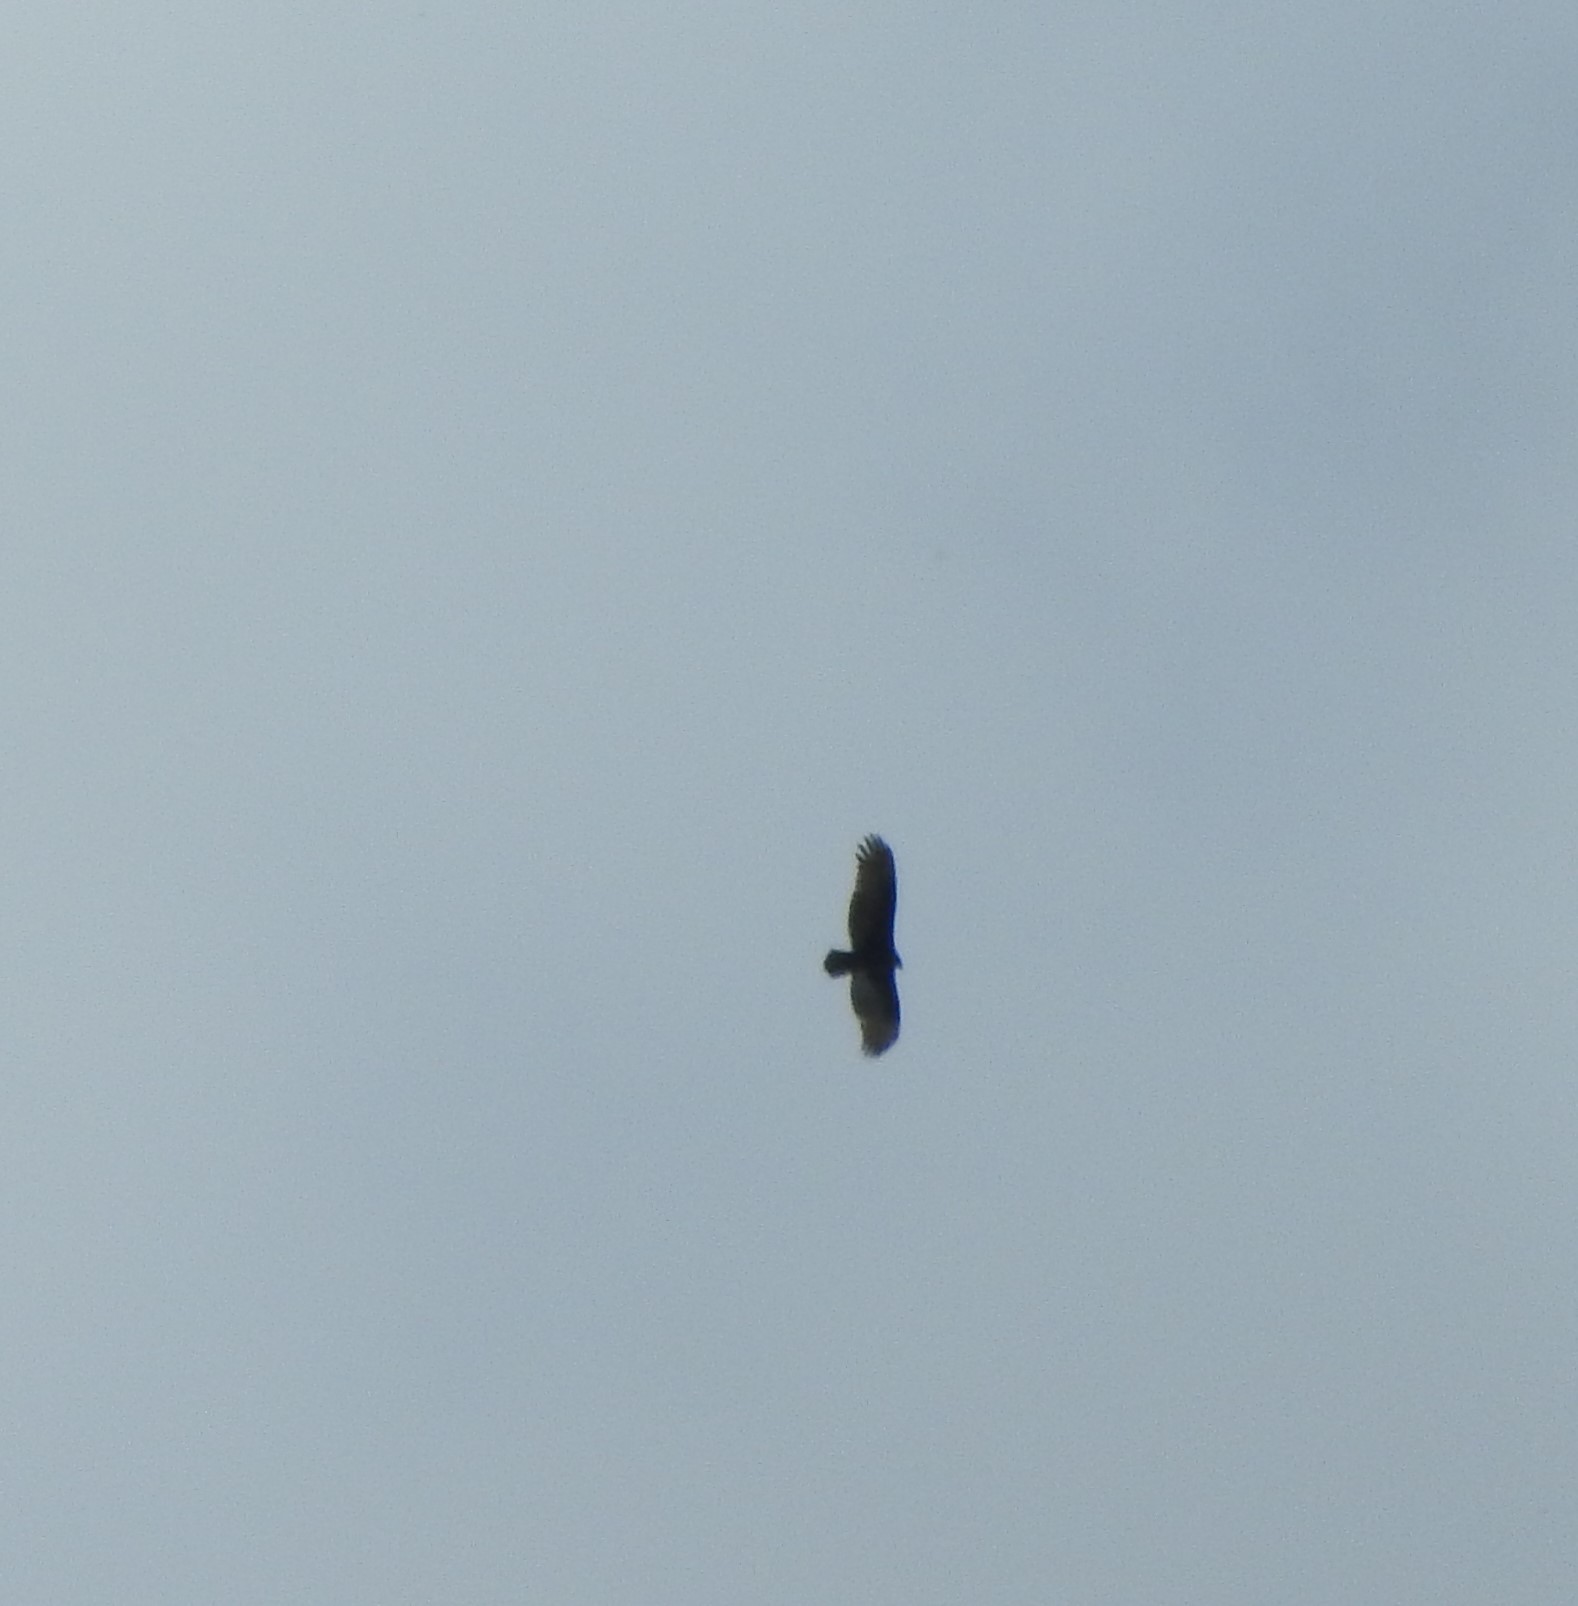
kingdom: Animalia
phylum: Chordata
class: Aves
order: Accipitriformes
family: Cathartidae
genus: Cathartes
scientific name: Cathartes aura
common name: Turkey vulture
